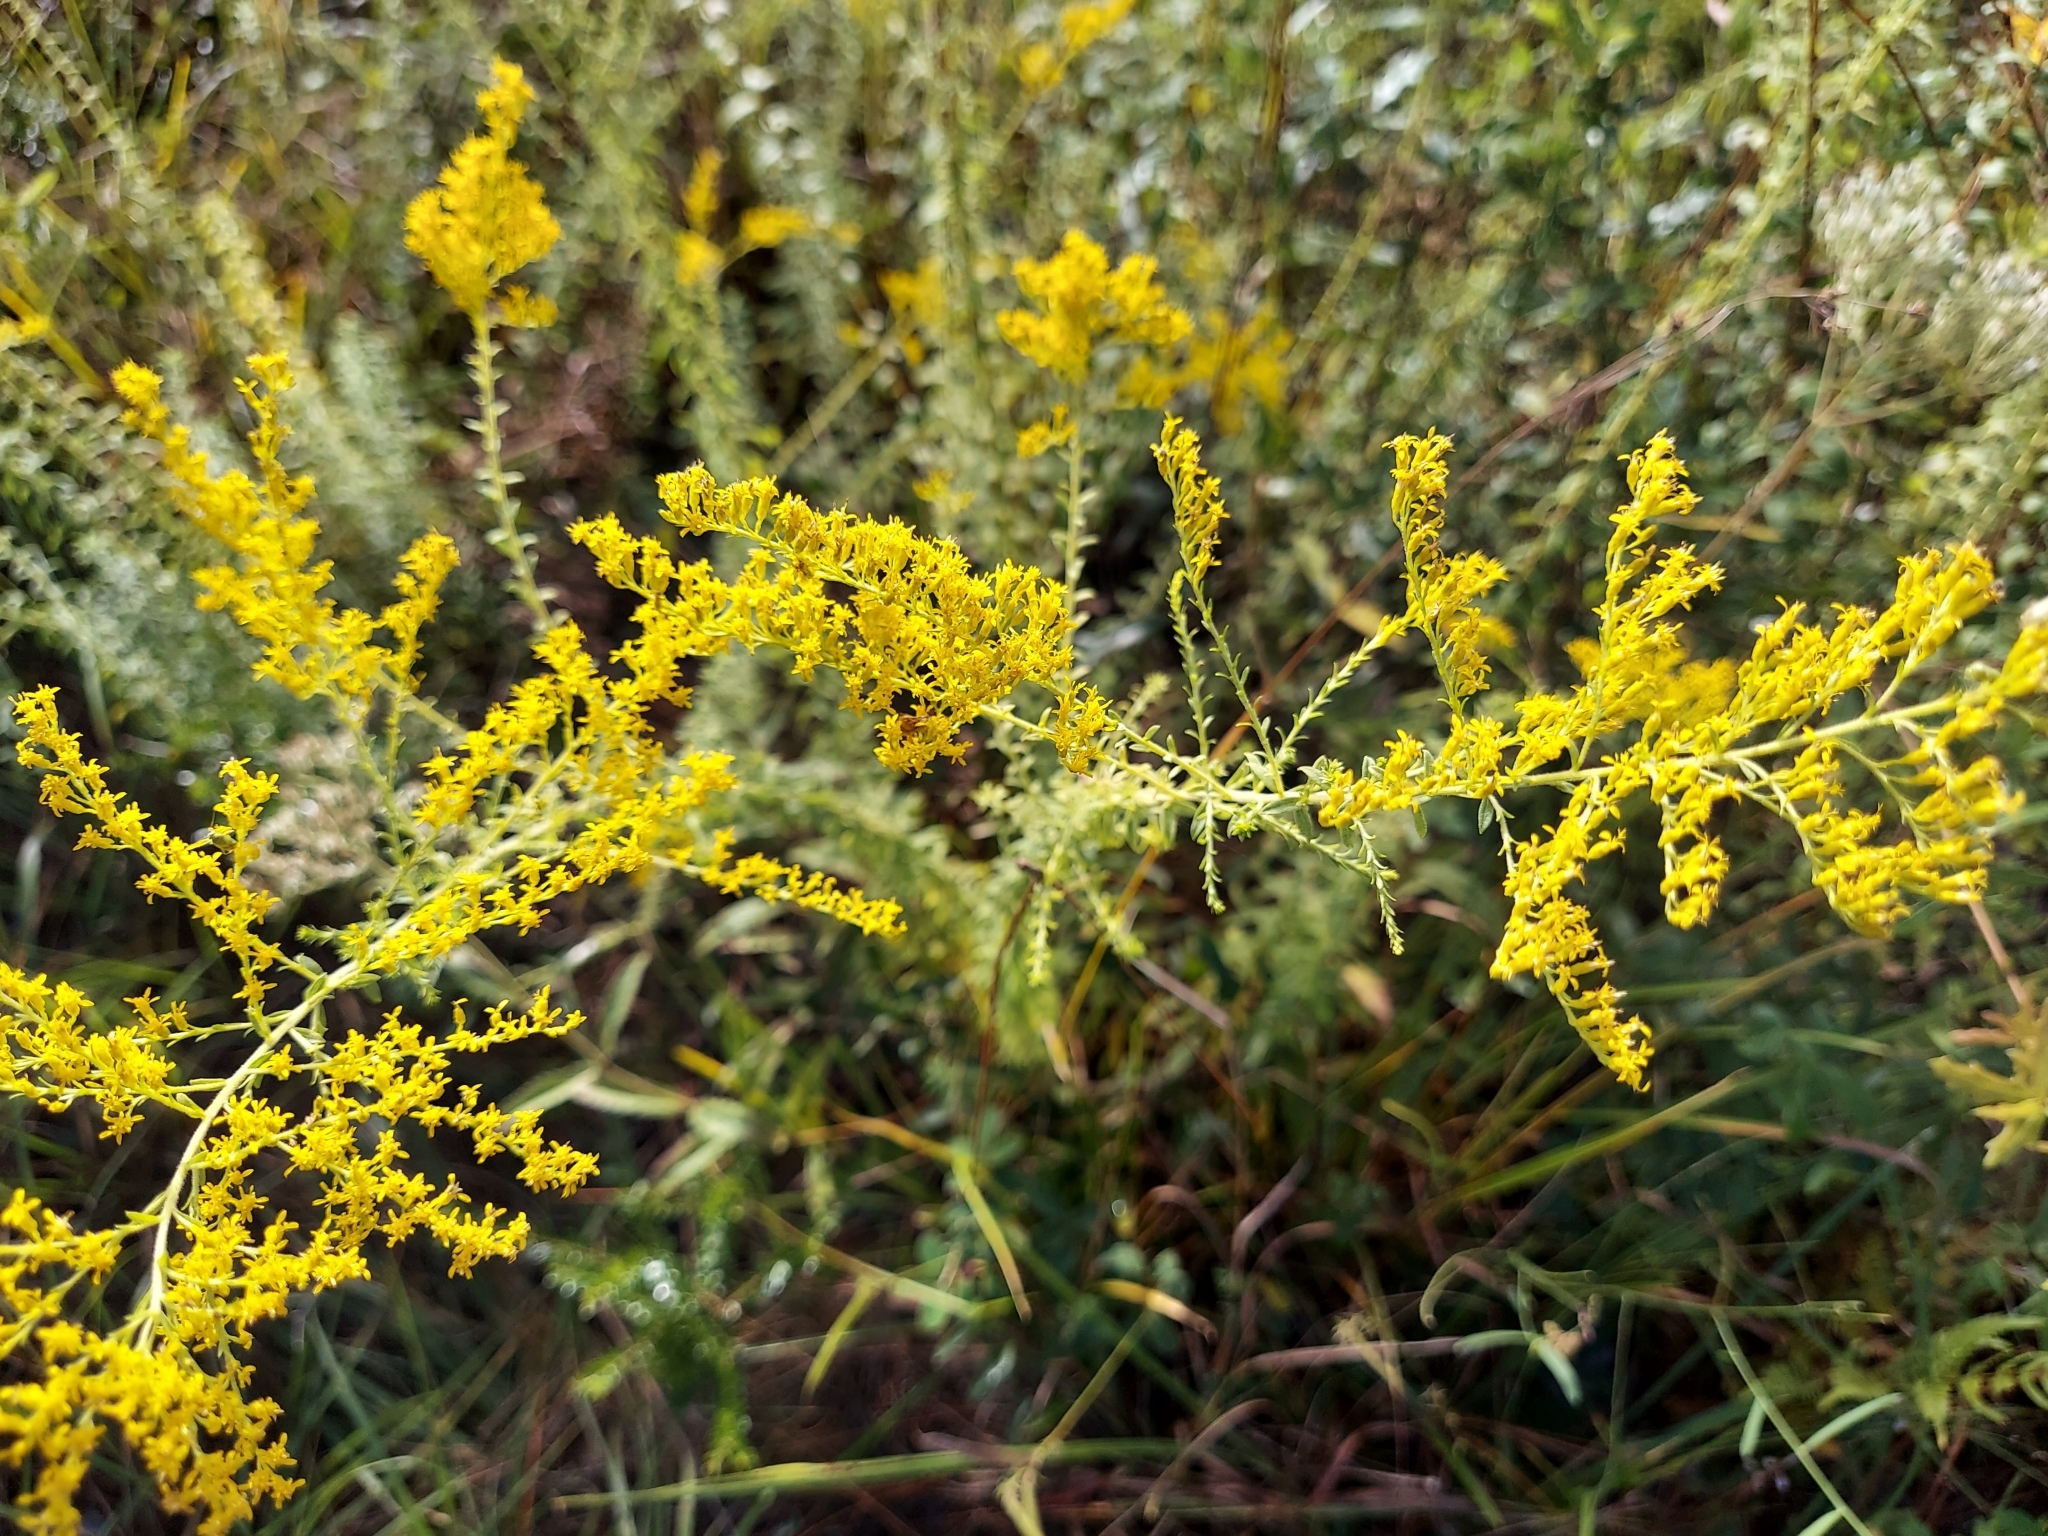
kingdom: Plantae
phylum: Tracheophyta
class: Magnoliopsida
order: Asterales
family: Asteraceae
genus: Solidago
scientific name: Solidago tortifolia
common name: Twisted-leaf goldenrod
